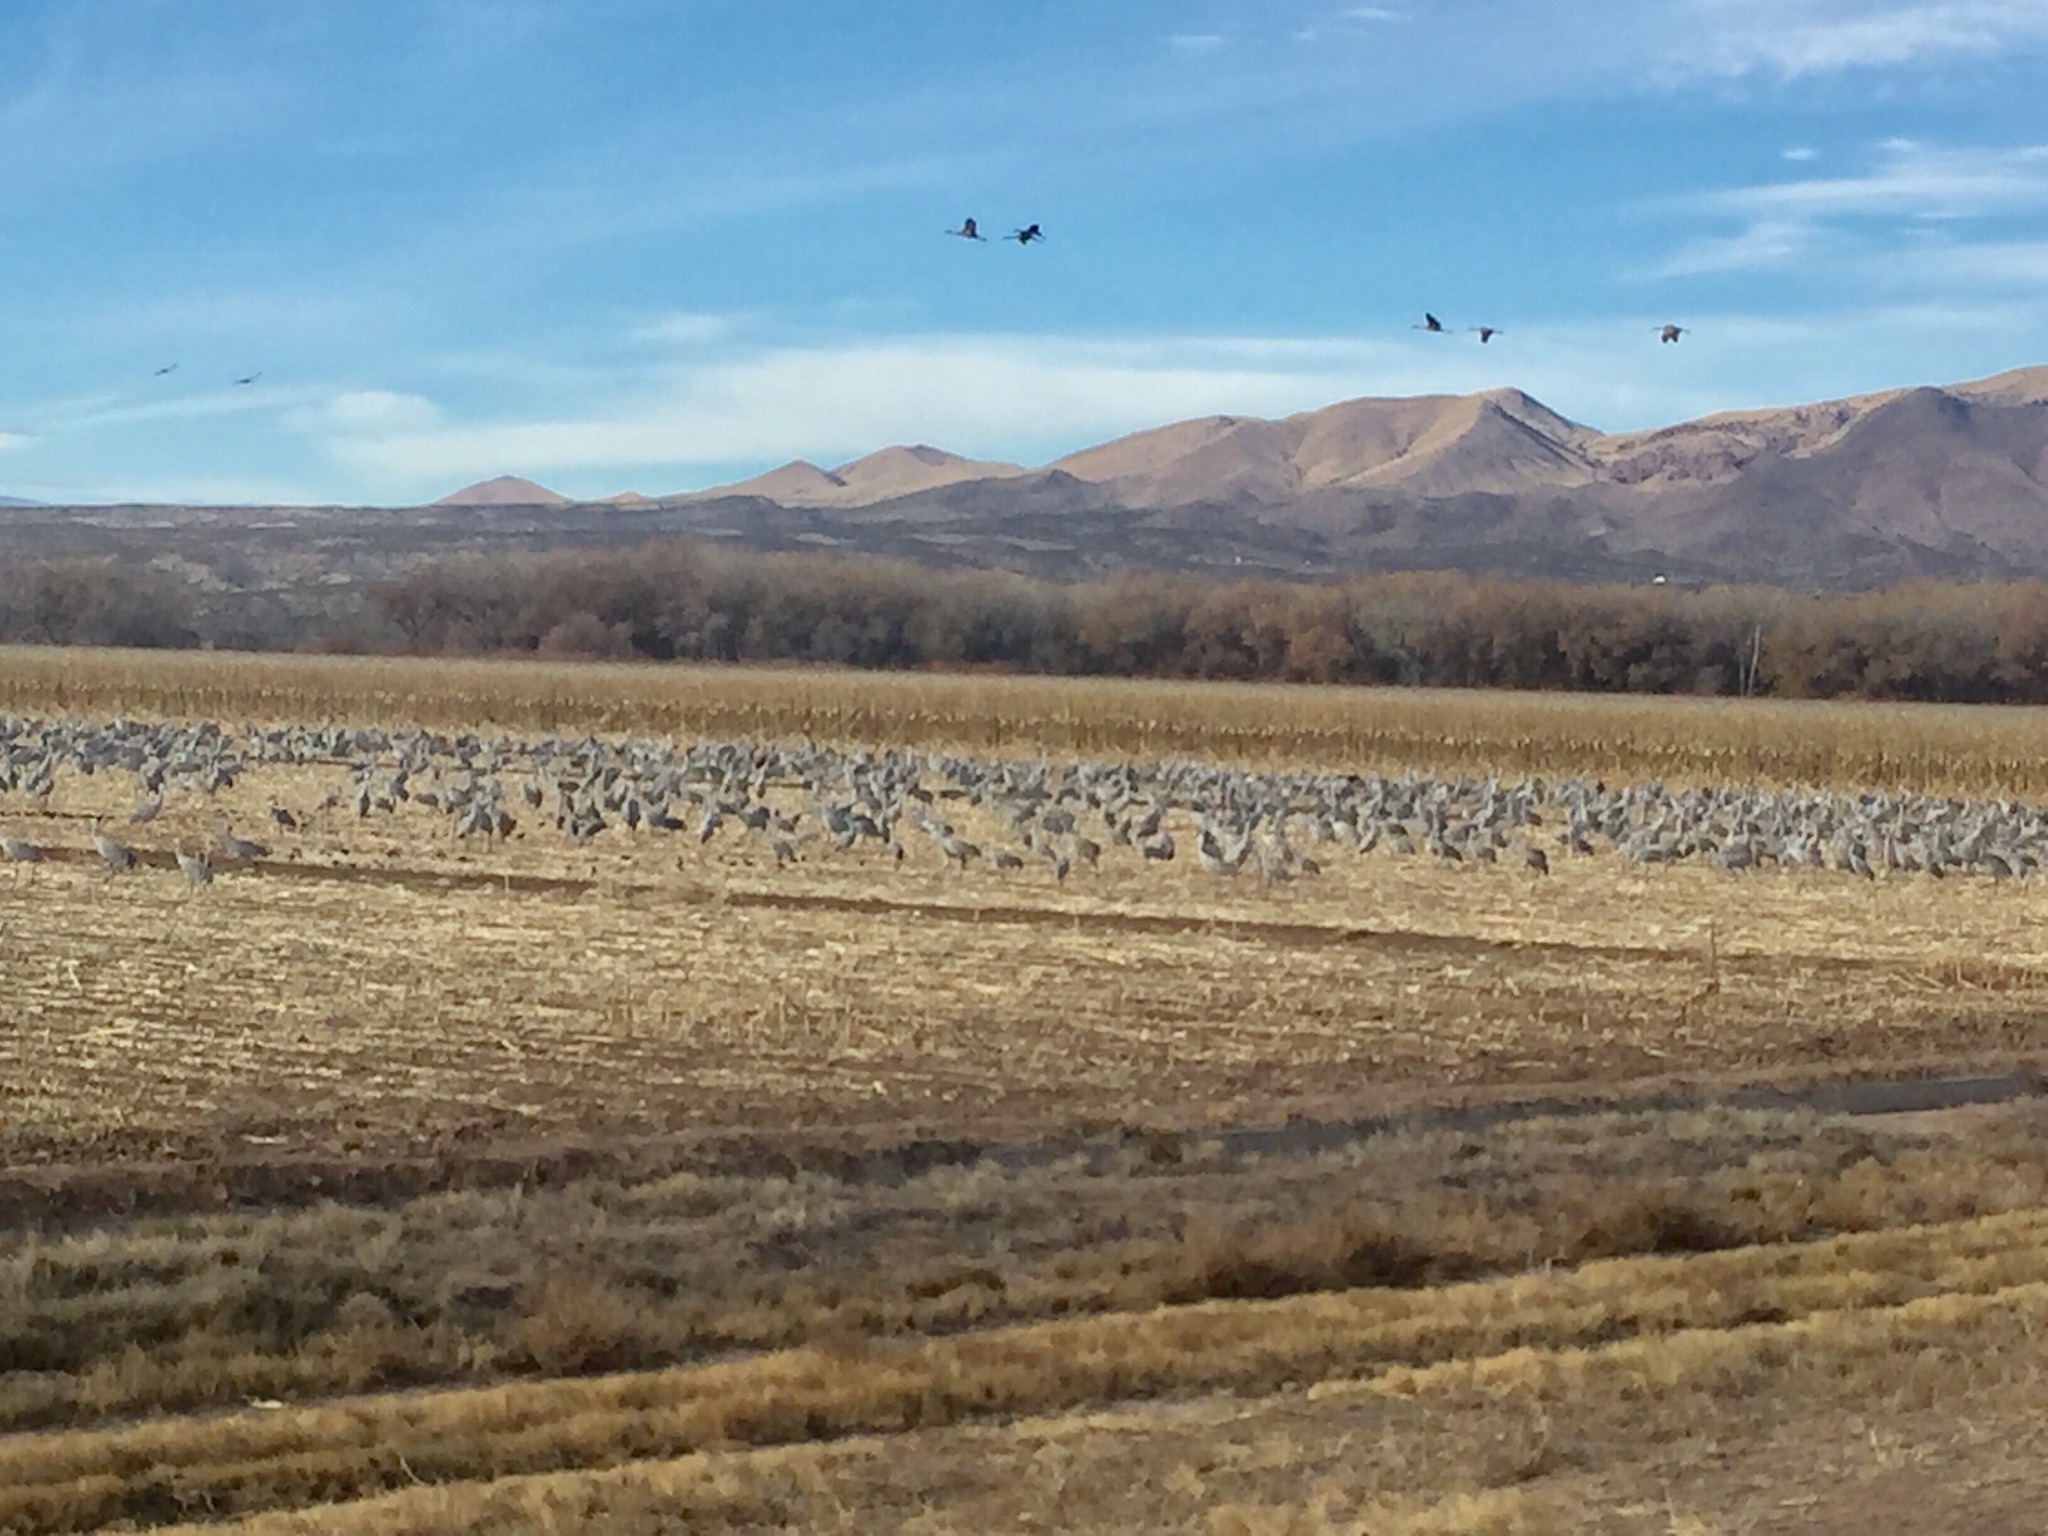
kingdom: Animalia
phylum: Chordata
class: Aves
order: Gruiformes
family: Gruidae
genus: Grus
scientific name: Grus canadensis
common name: Sandhill crane
